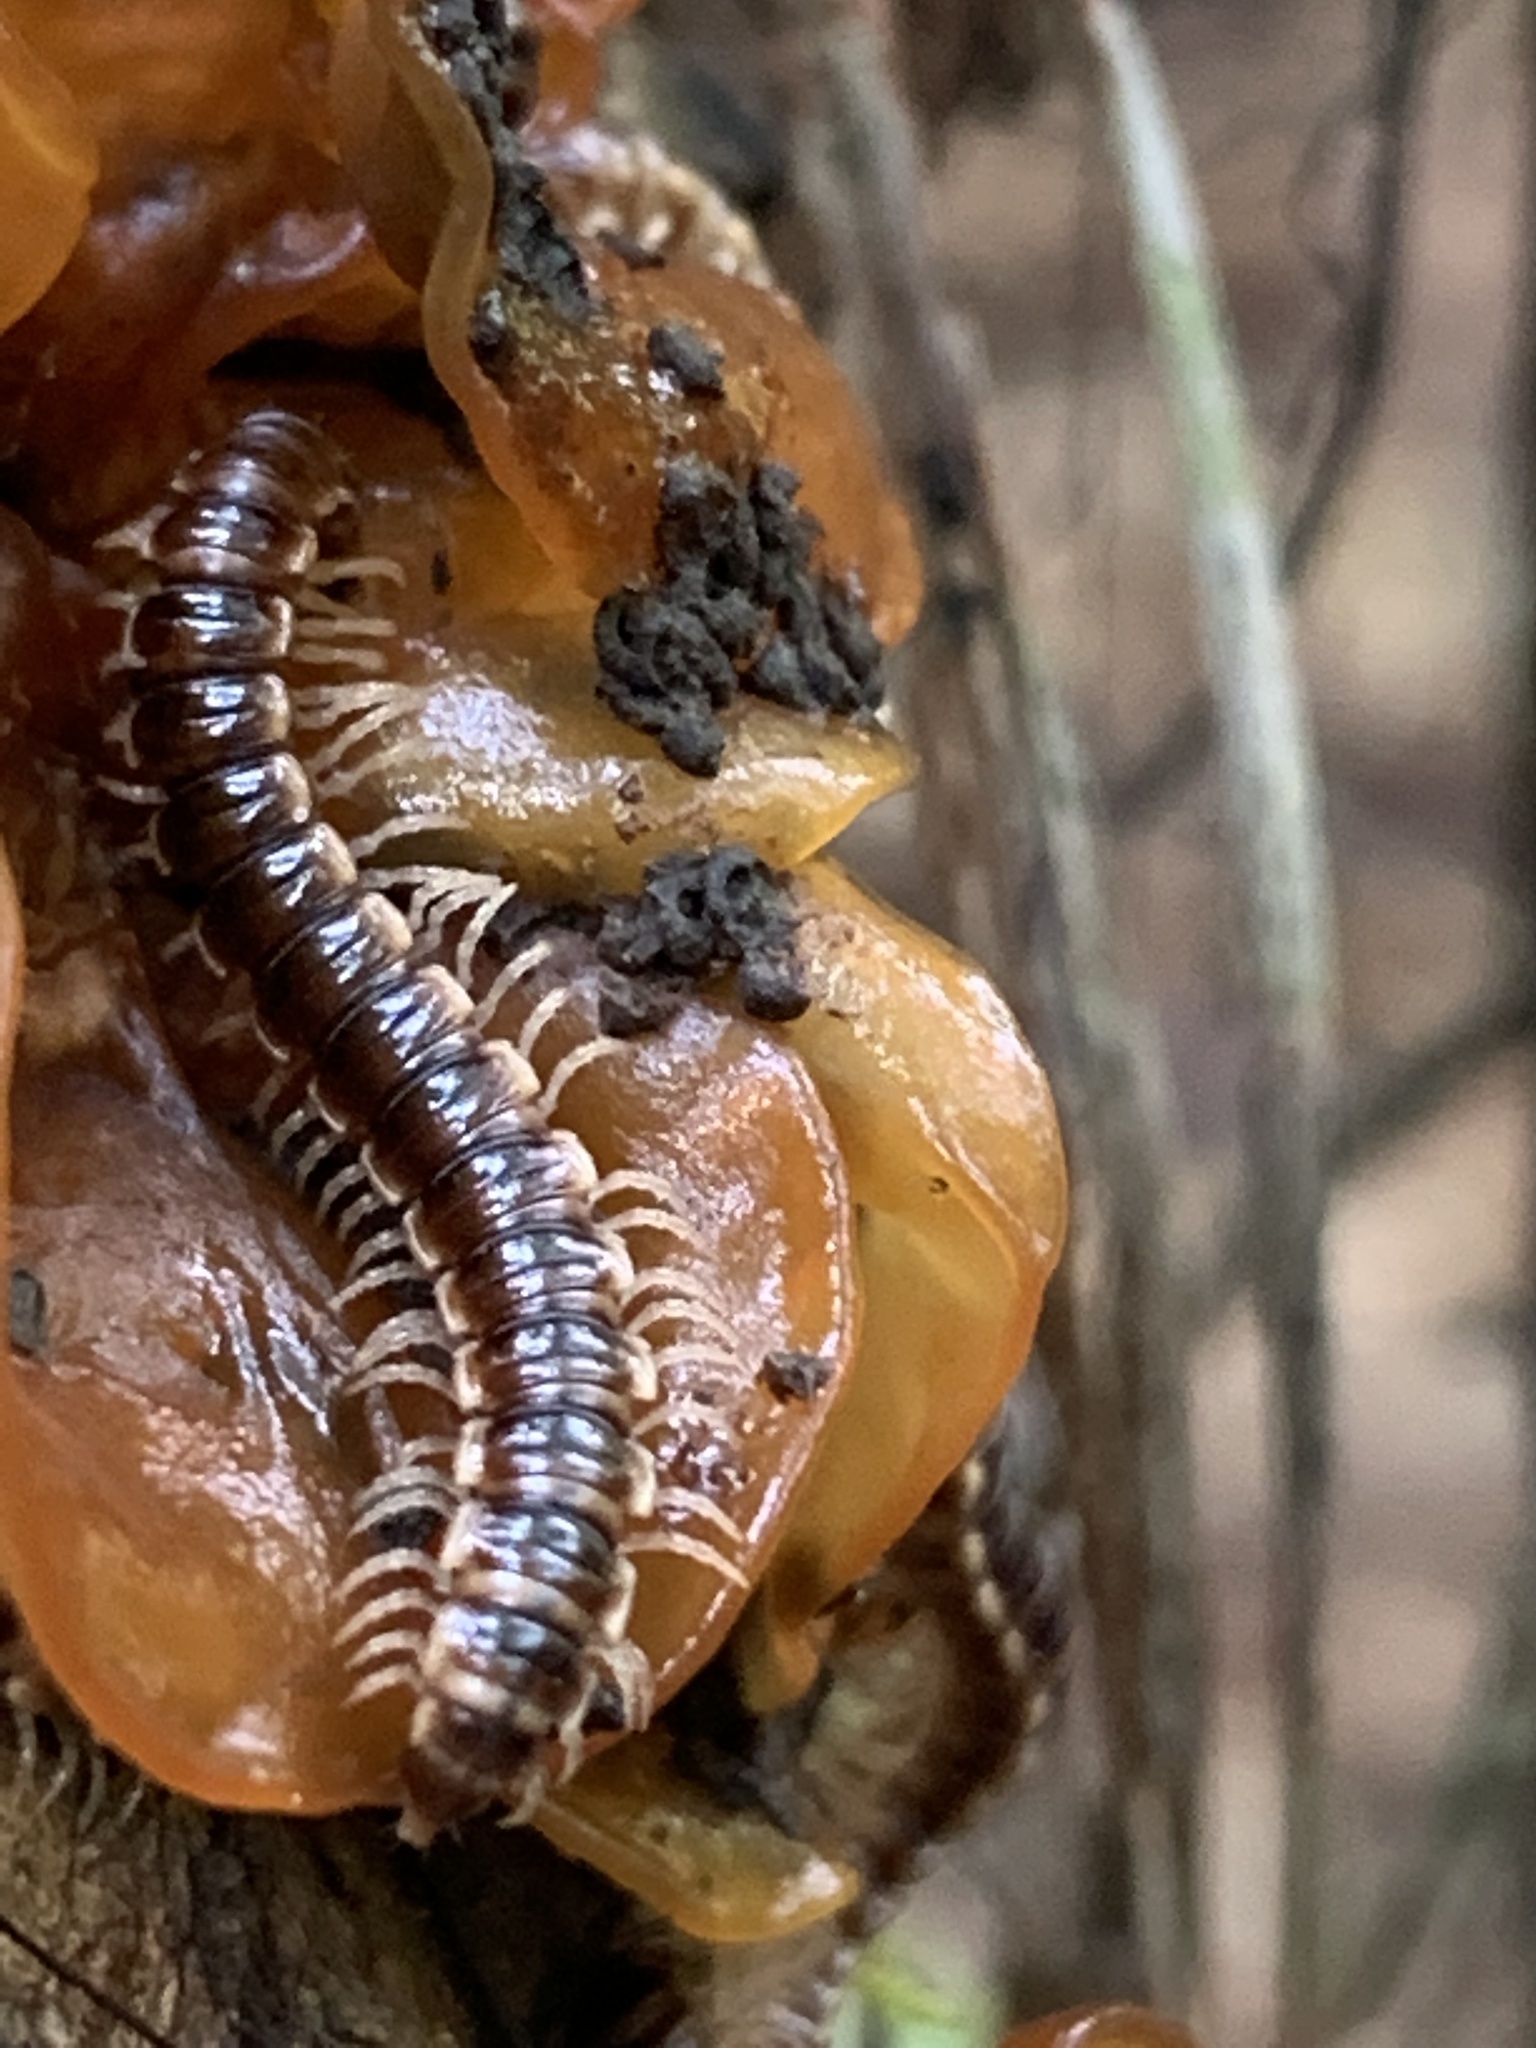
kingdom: Animalia
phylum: Arthropoda
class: Diplopoda
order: Polydesmida
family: Paradoxosomatidae
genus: Oxidus
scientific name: Oxidus gracilis
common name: Greenhouse millipede
